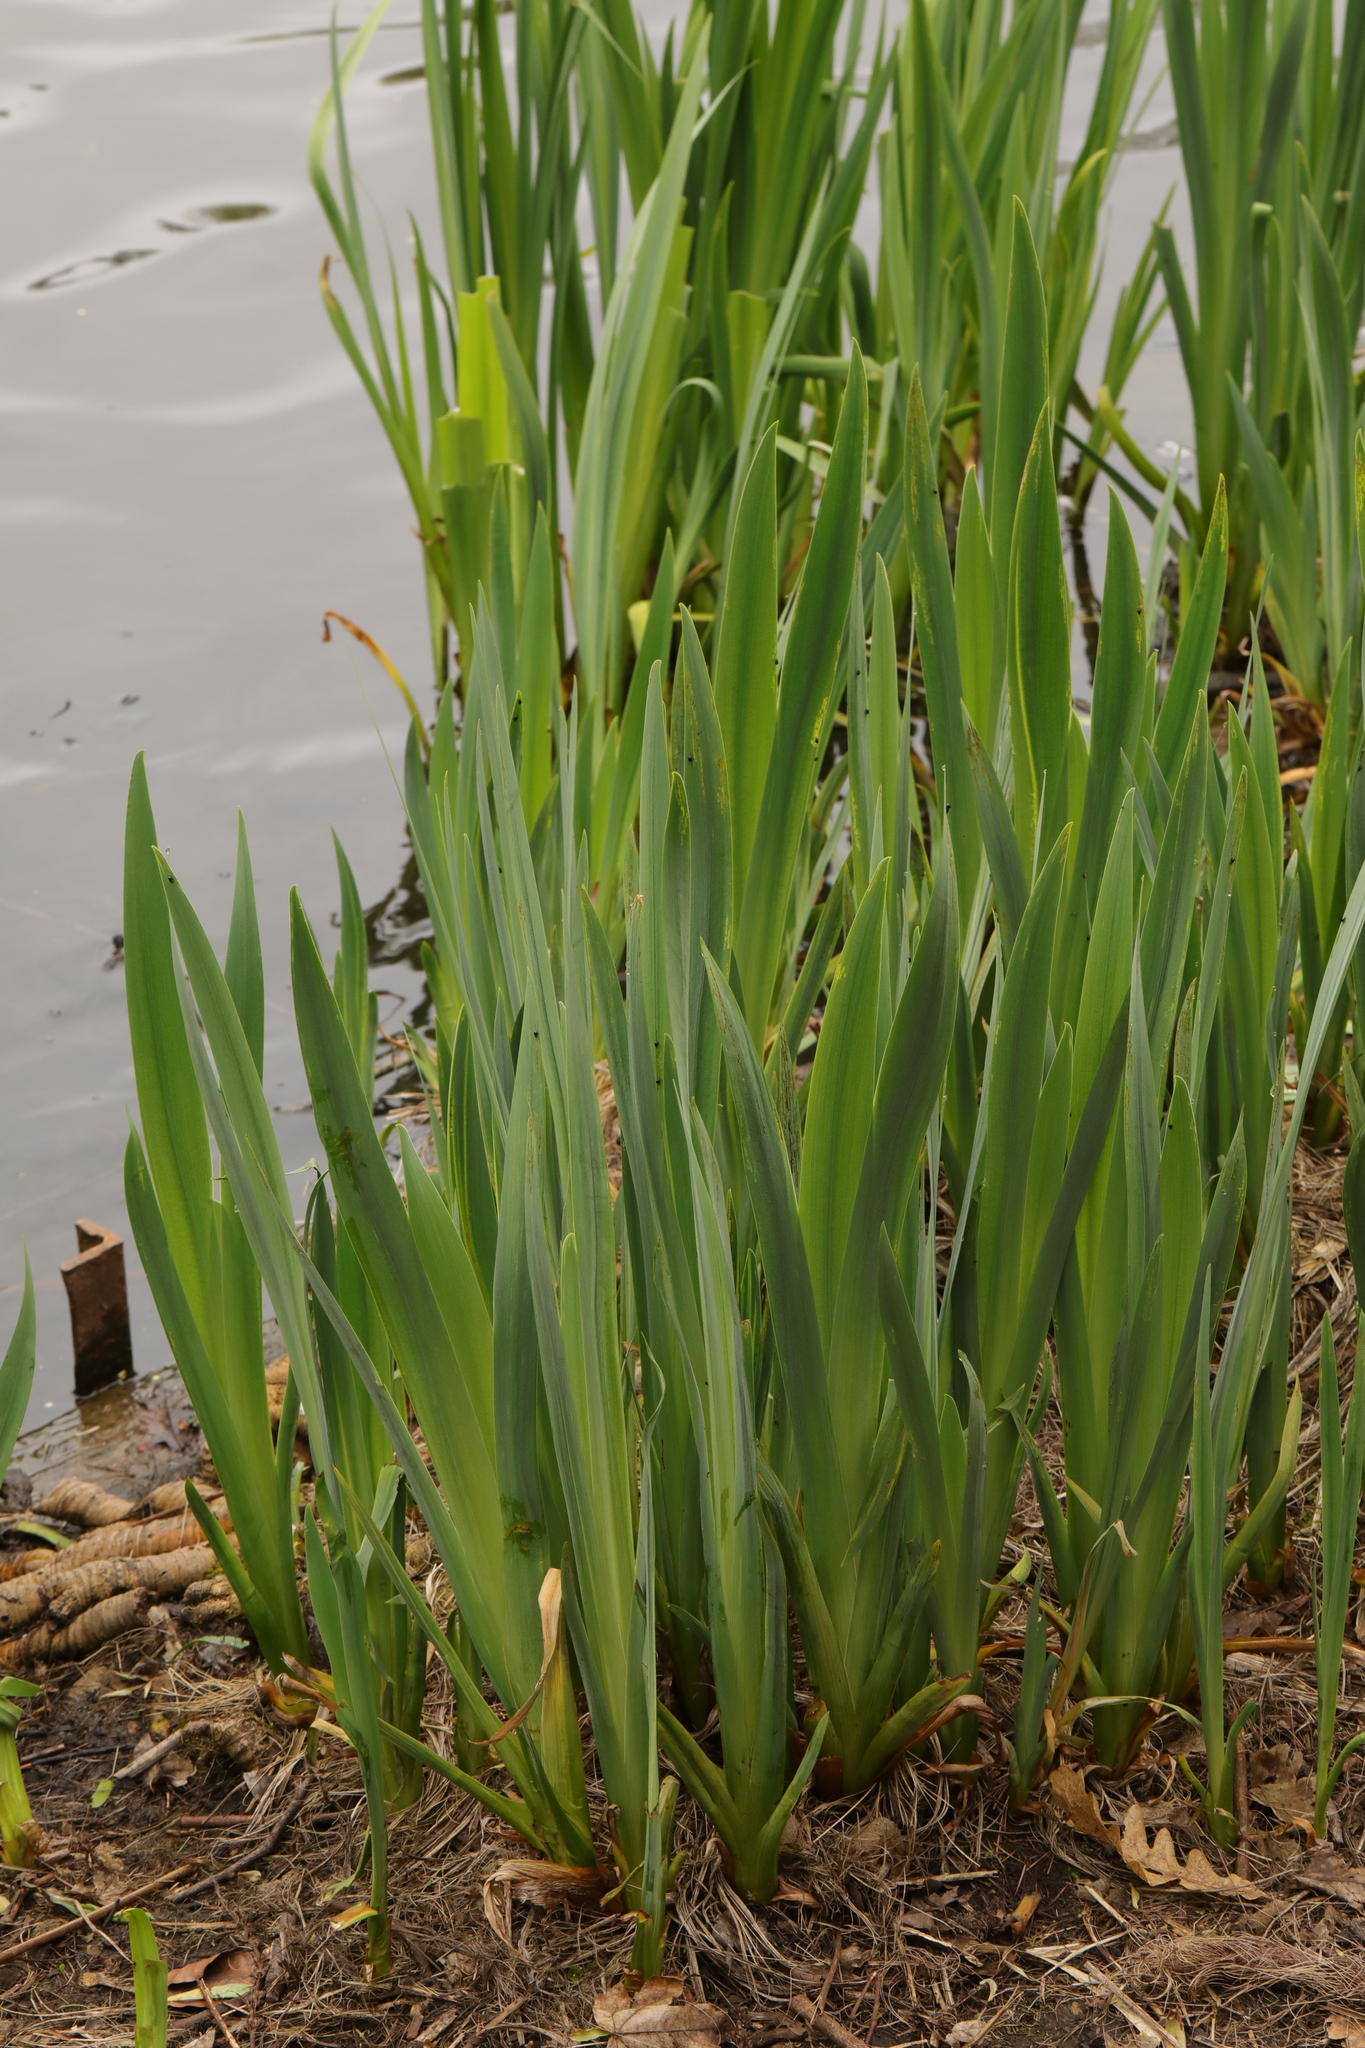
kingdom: Plantae
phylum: Tracheophyta
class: Liliopsida
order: Asparagales
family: Iridaceae
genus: Iris
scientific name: Iris pseudacorus
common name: Yellow flag
